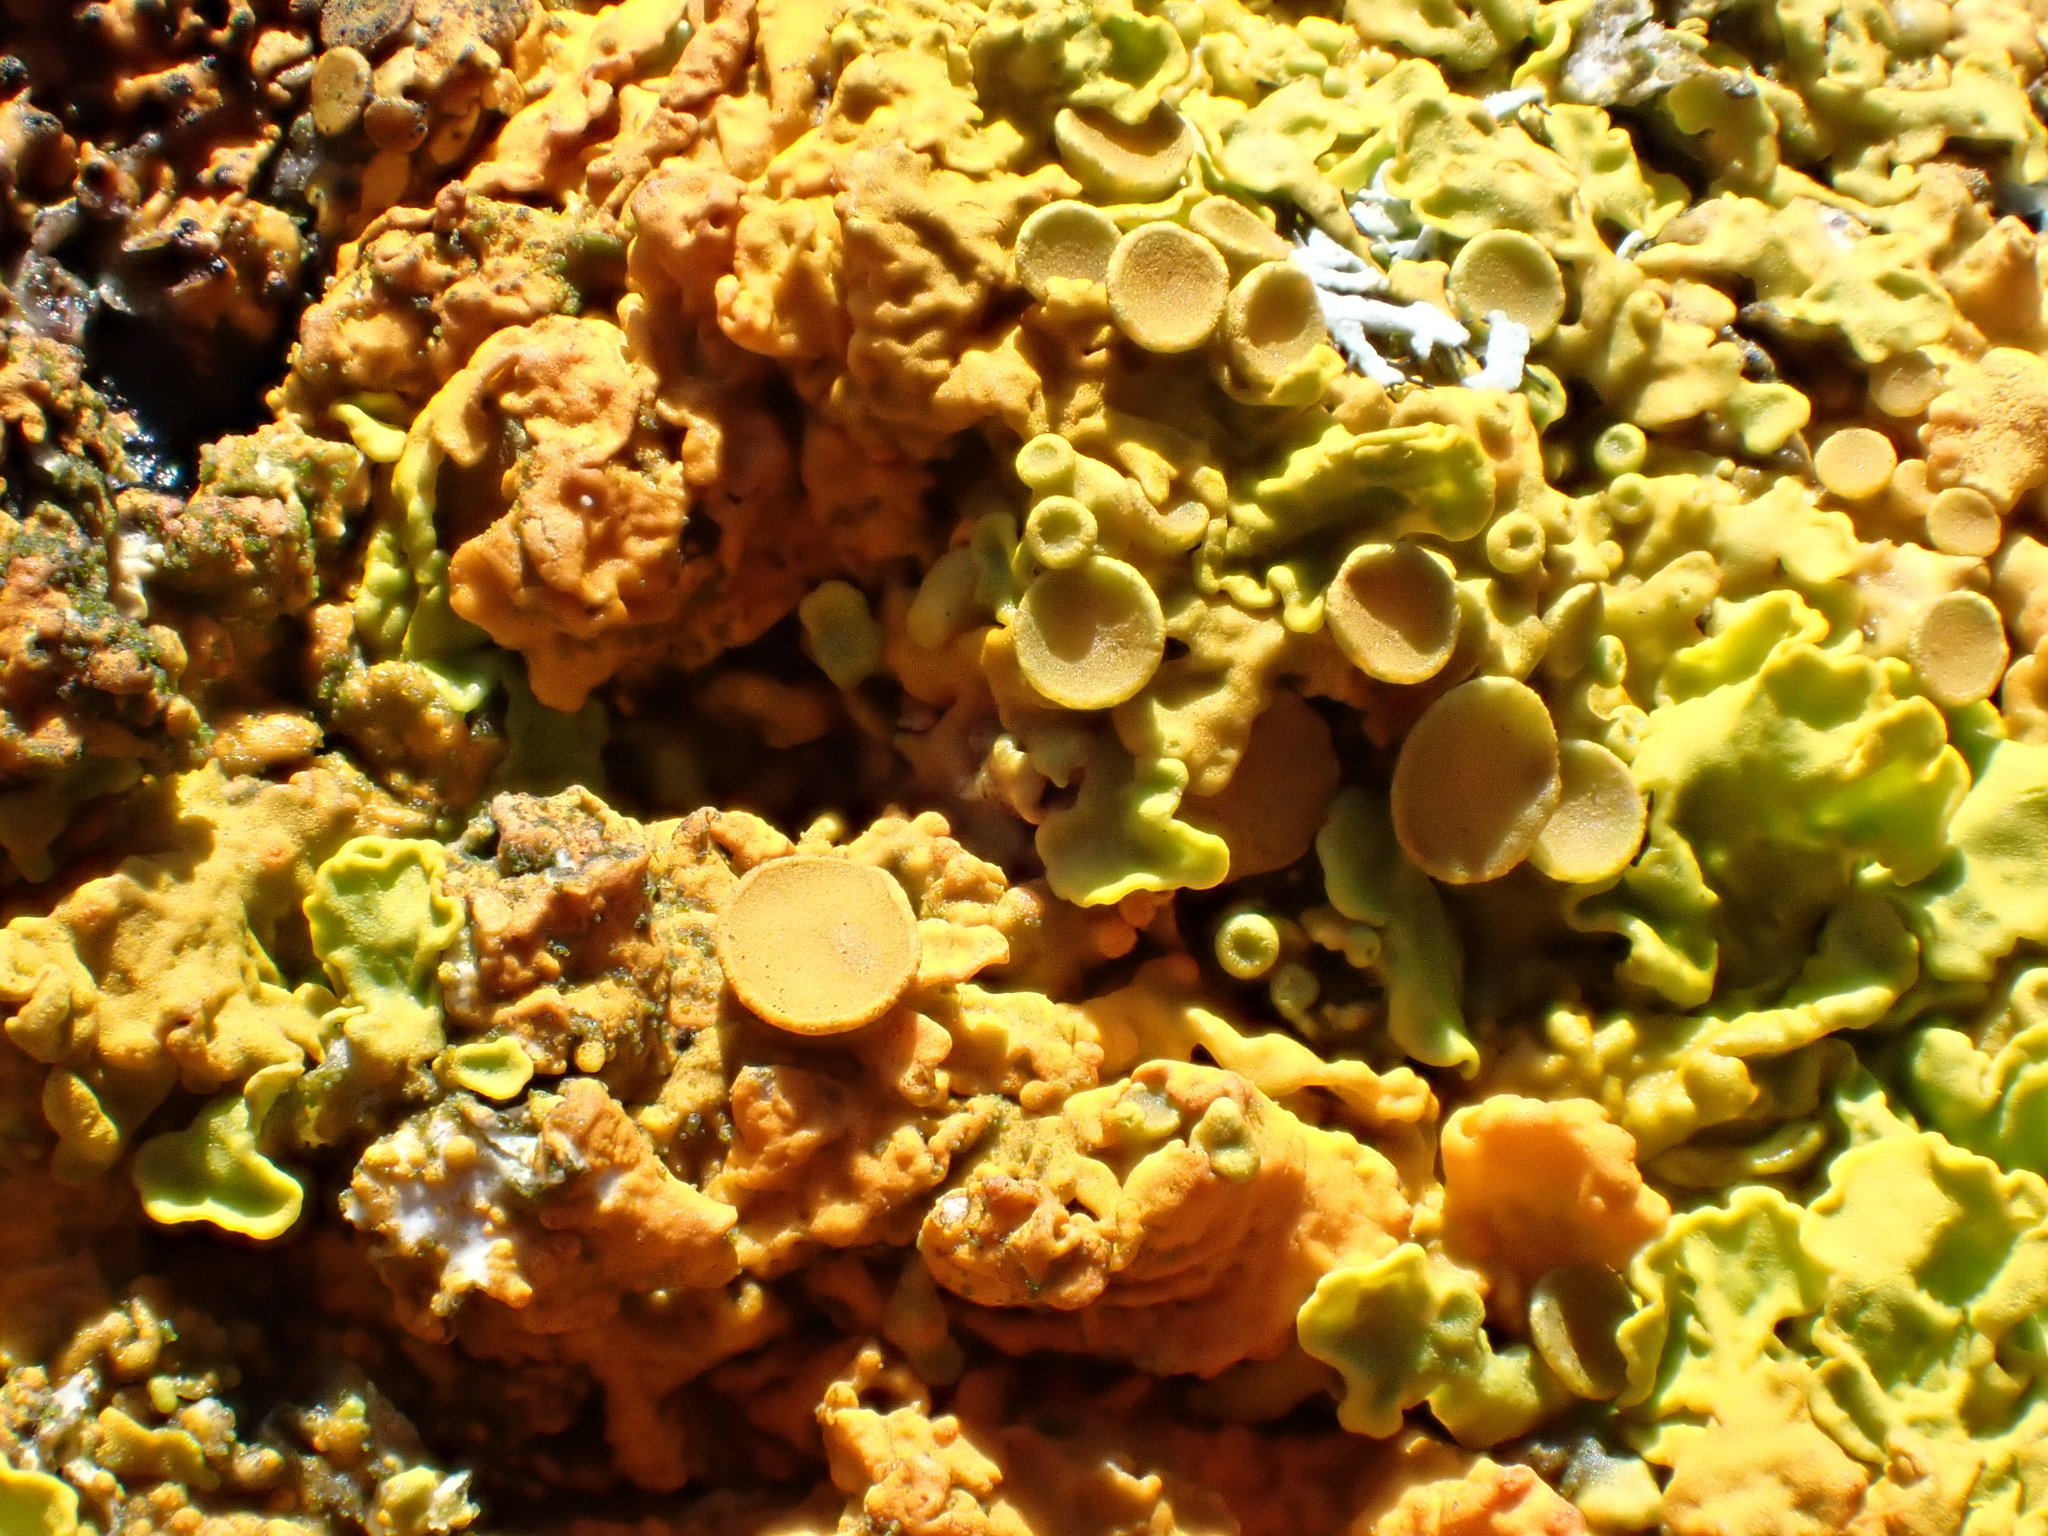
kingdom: Fungi
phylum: Ascomycota
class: Lecanoromycetes
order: Teloschistales
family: Teloschistaceae
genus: Xanthoria
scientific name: Xanthoria parietina
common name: Common orange lichen
